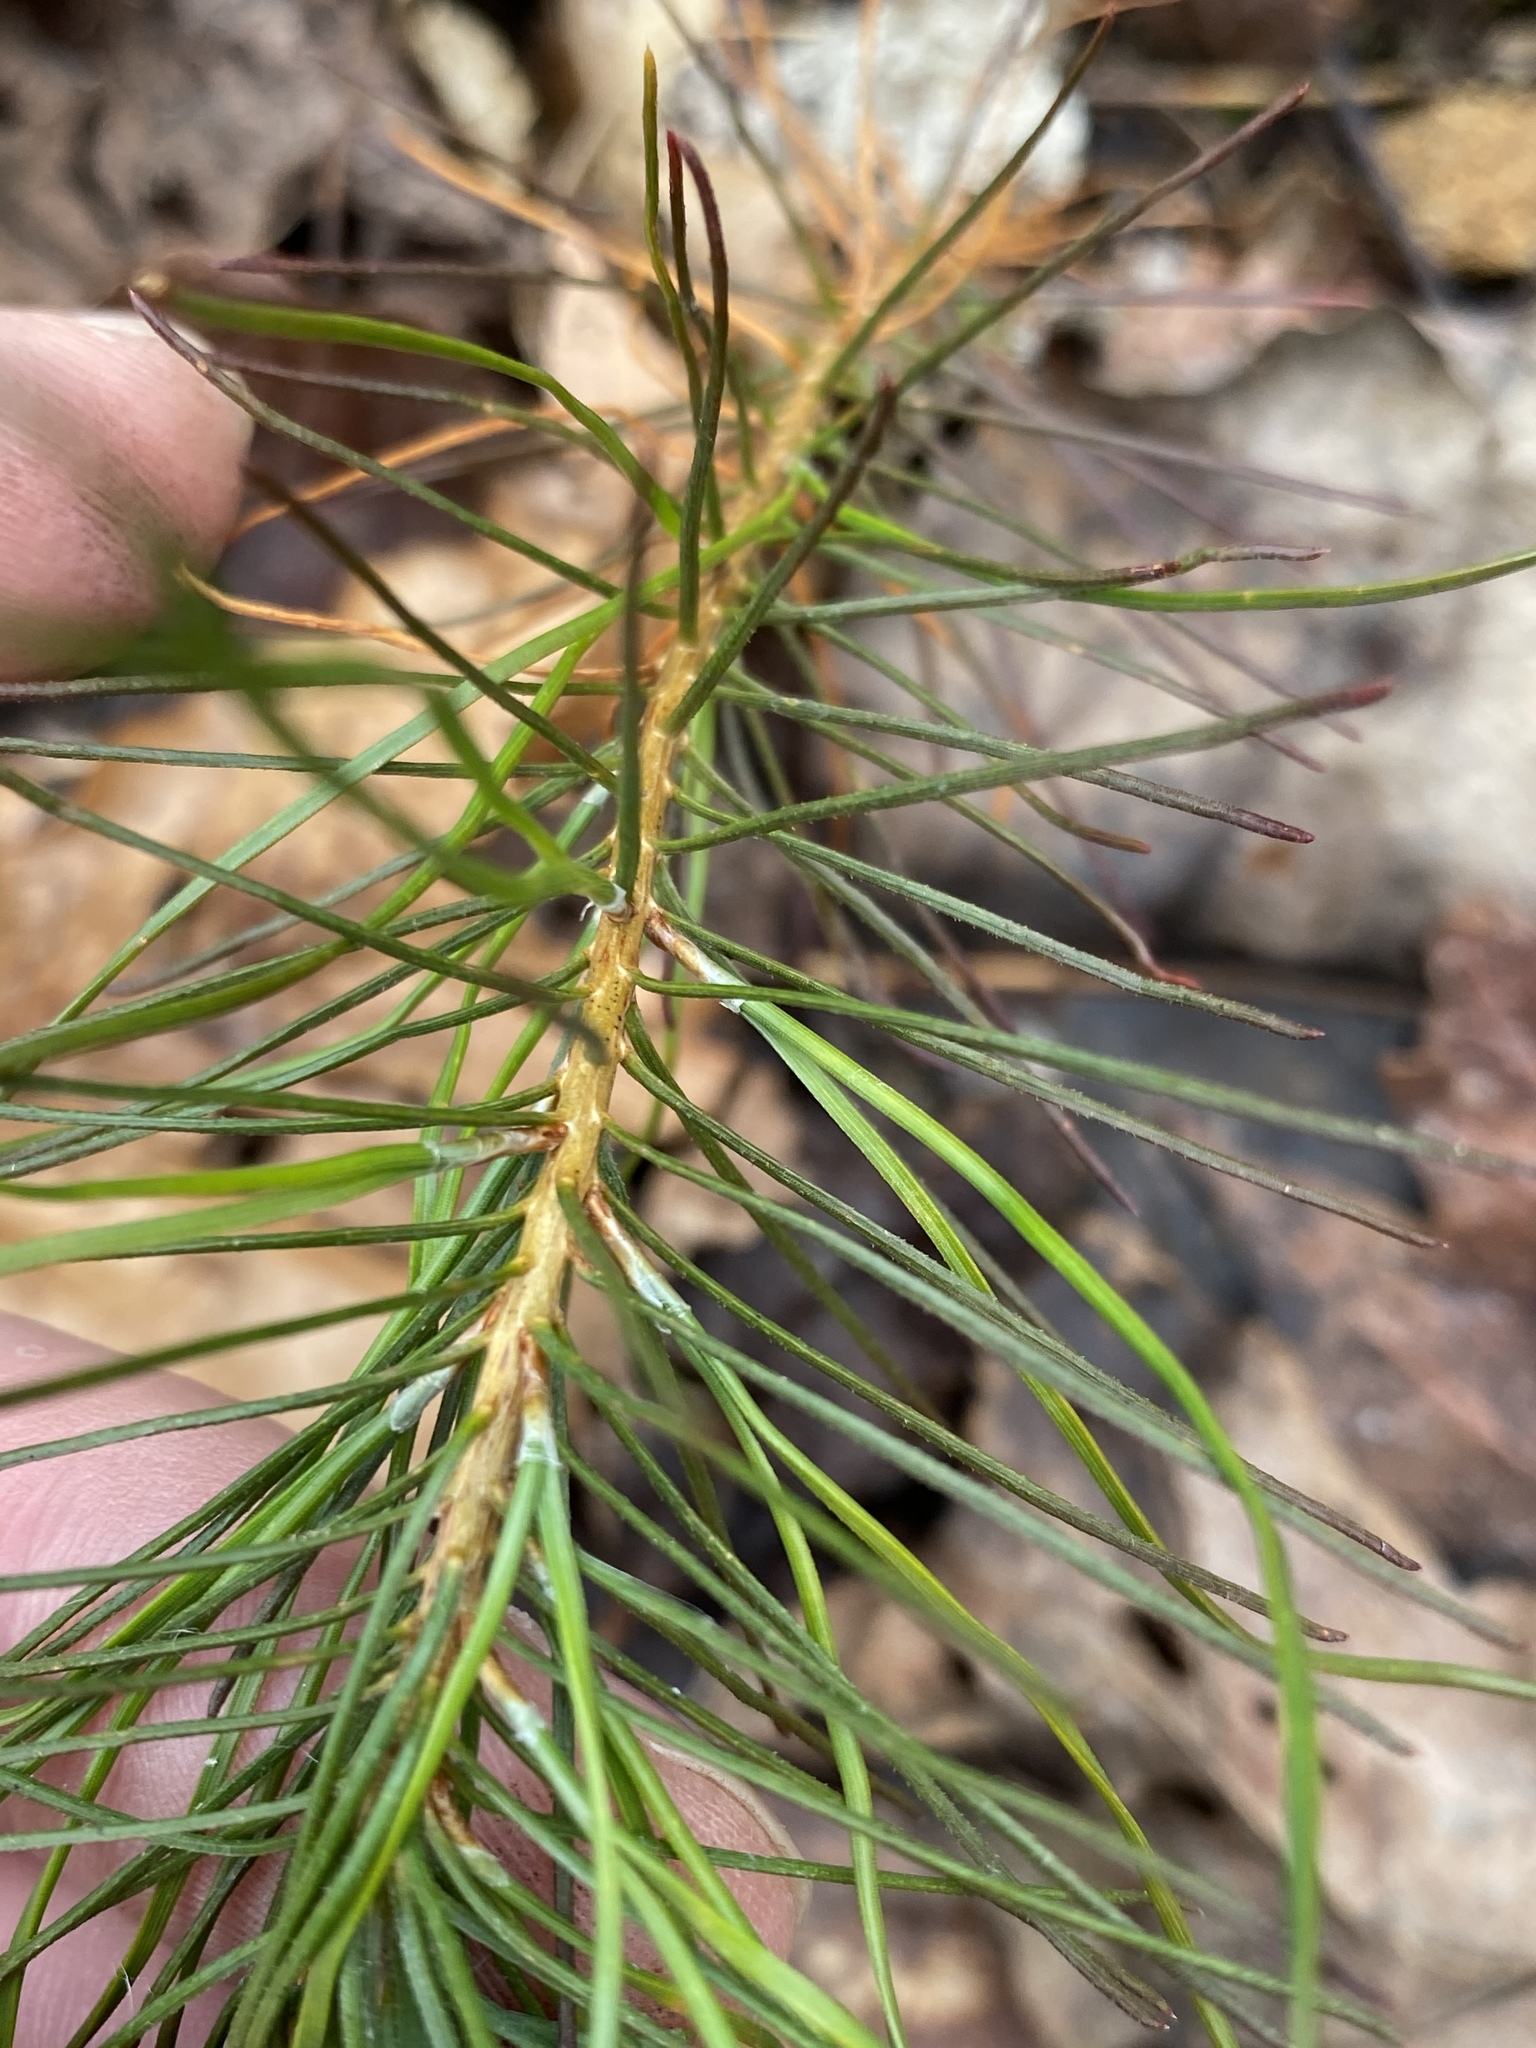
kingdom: Plantae
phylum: Tracheophyta
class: Pinopsida
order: Pinales
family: Pinaceae
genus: Pinus
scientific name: Pinus virginiana
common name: Scrub pine
